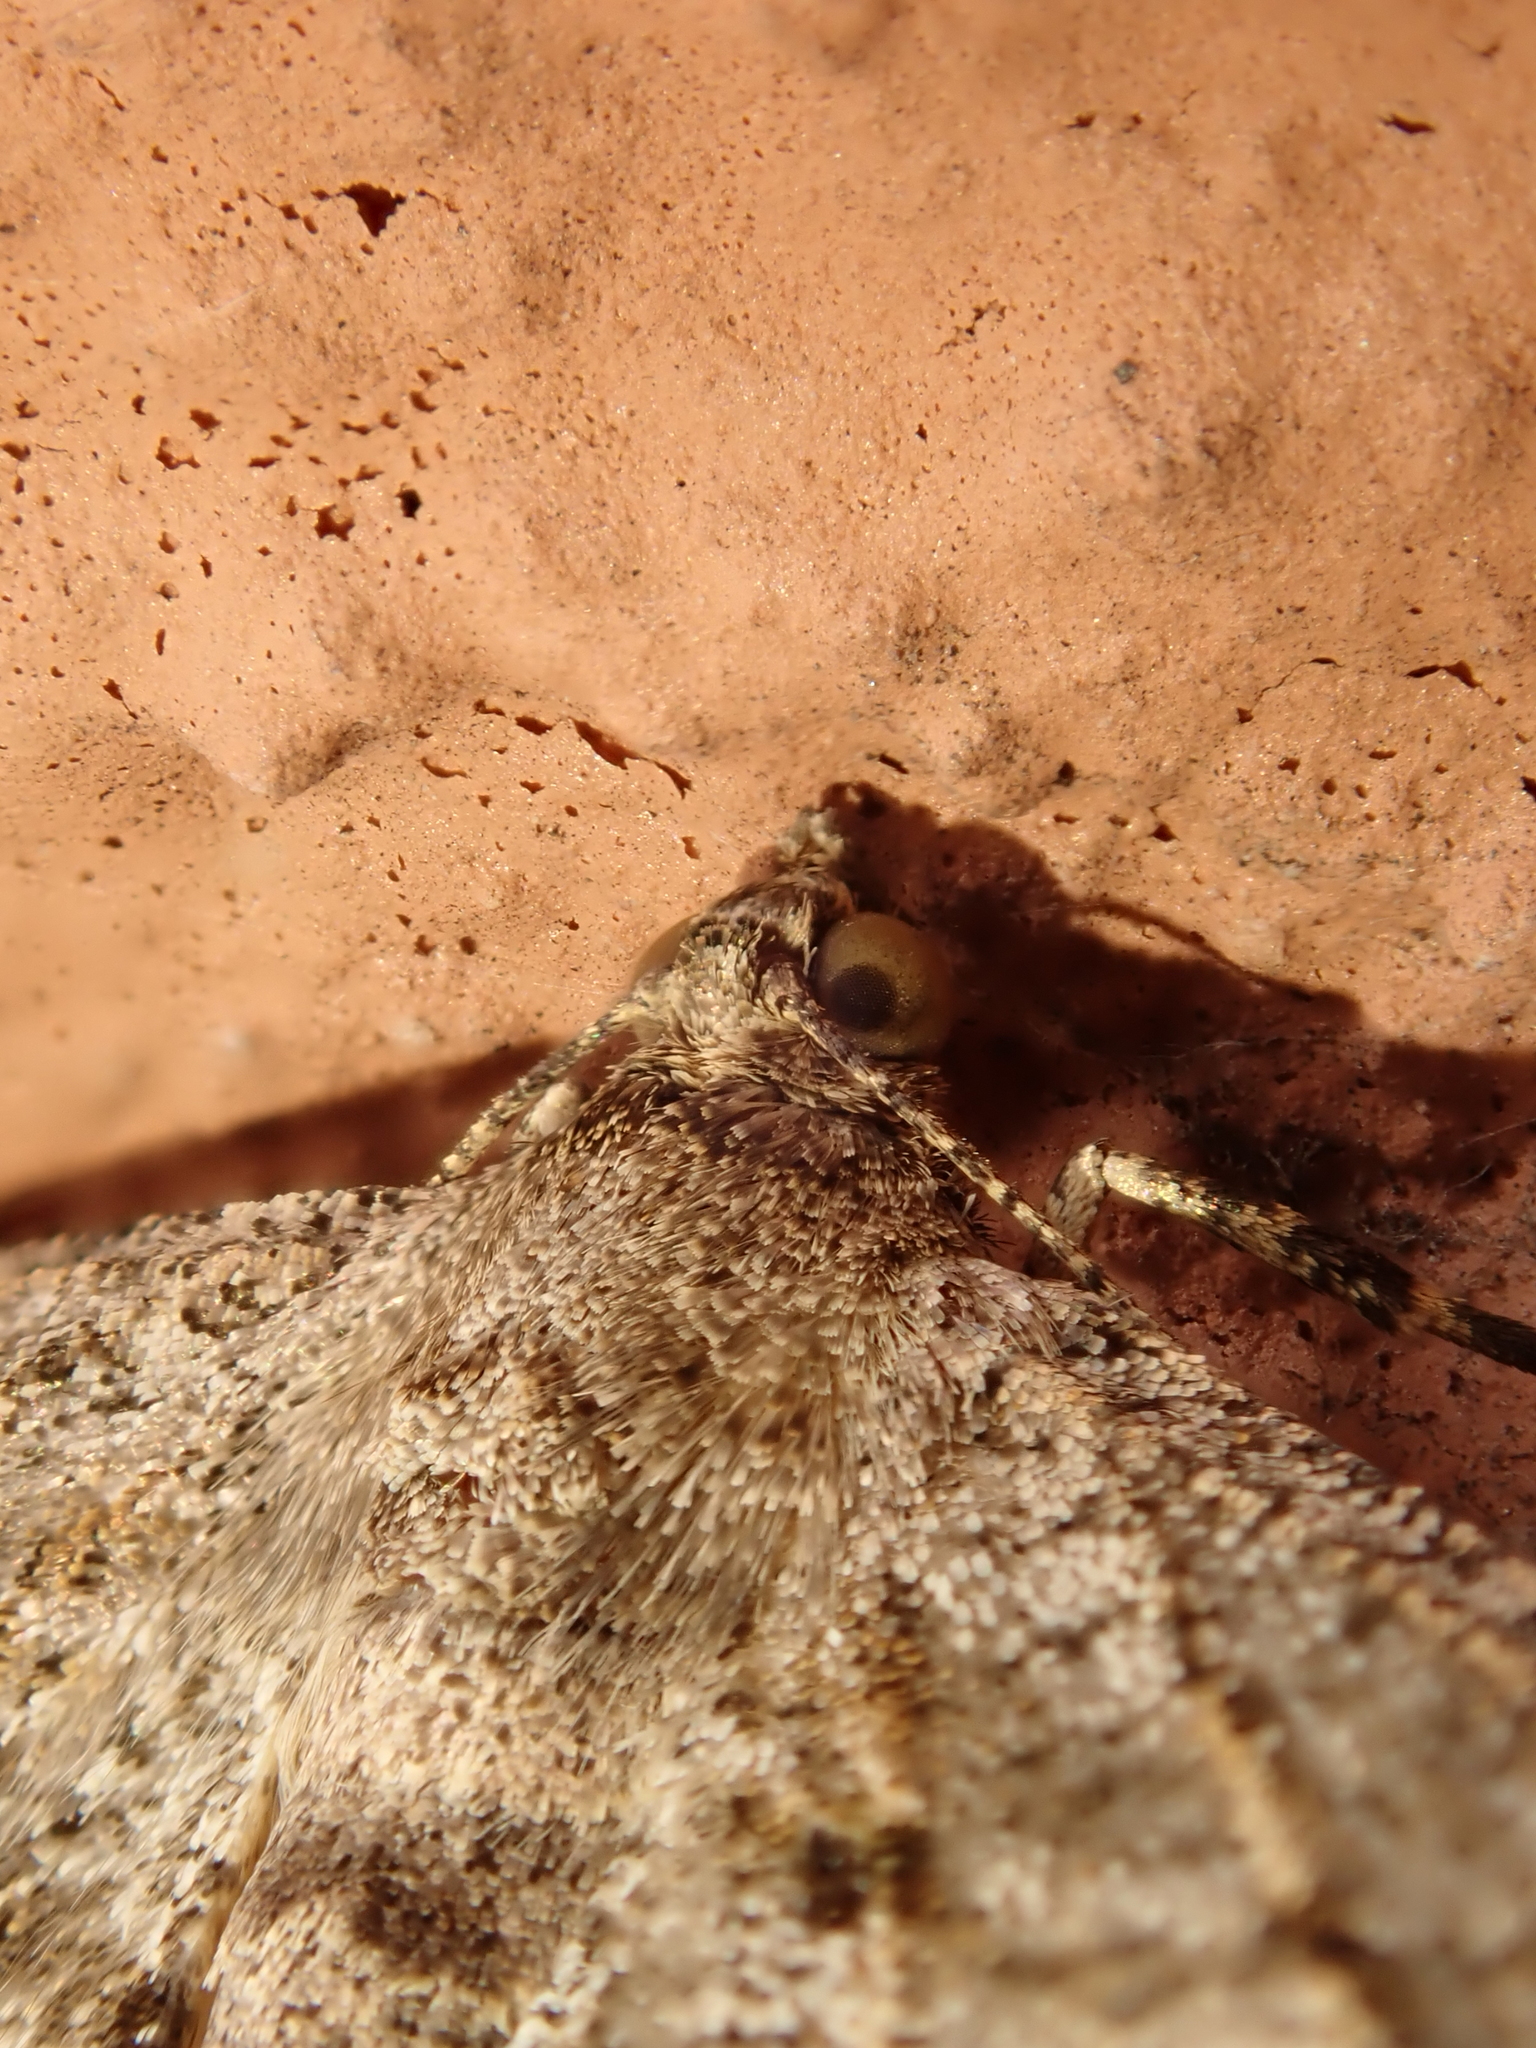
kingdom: Animalia
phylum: Arthropoda
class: Insecta
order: Lepidoptera
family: Geometridae
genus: Peribatodes
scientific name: Peribatodes rhomboidaria
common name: Willow beauty
